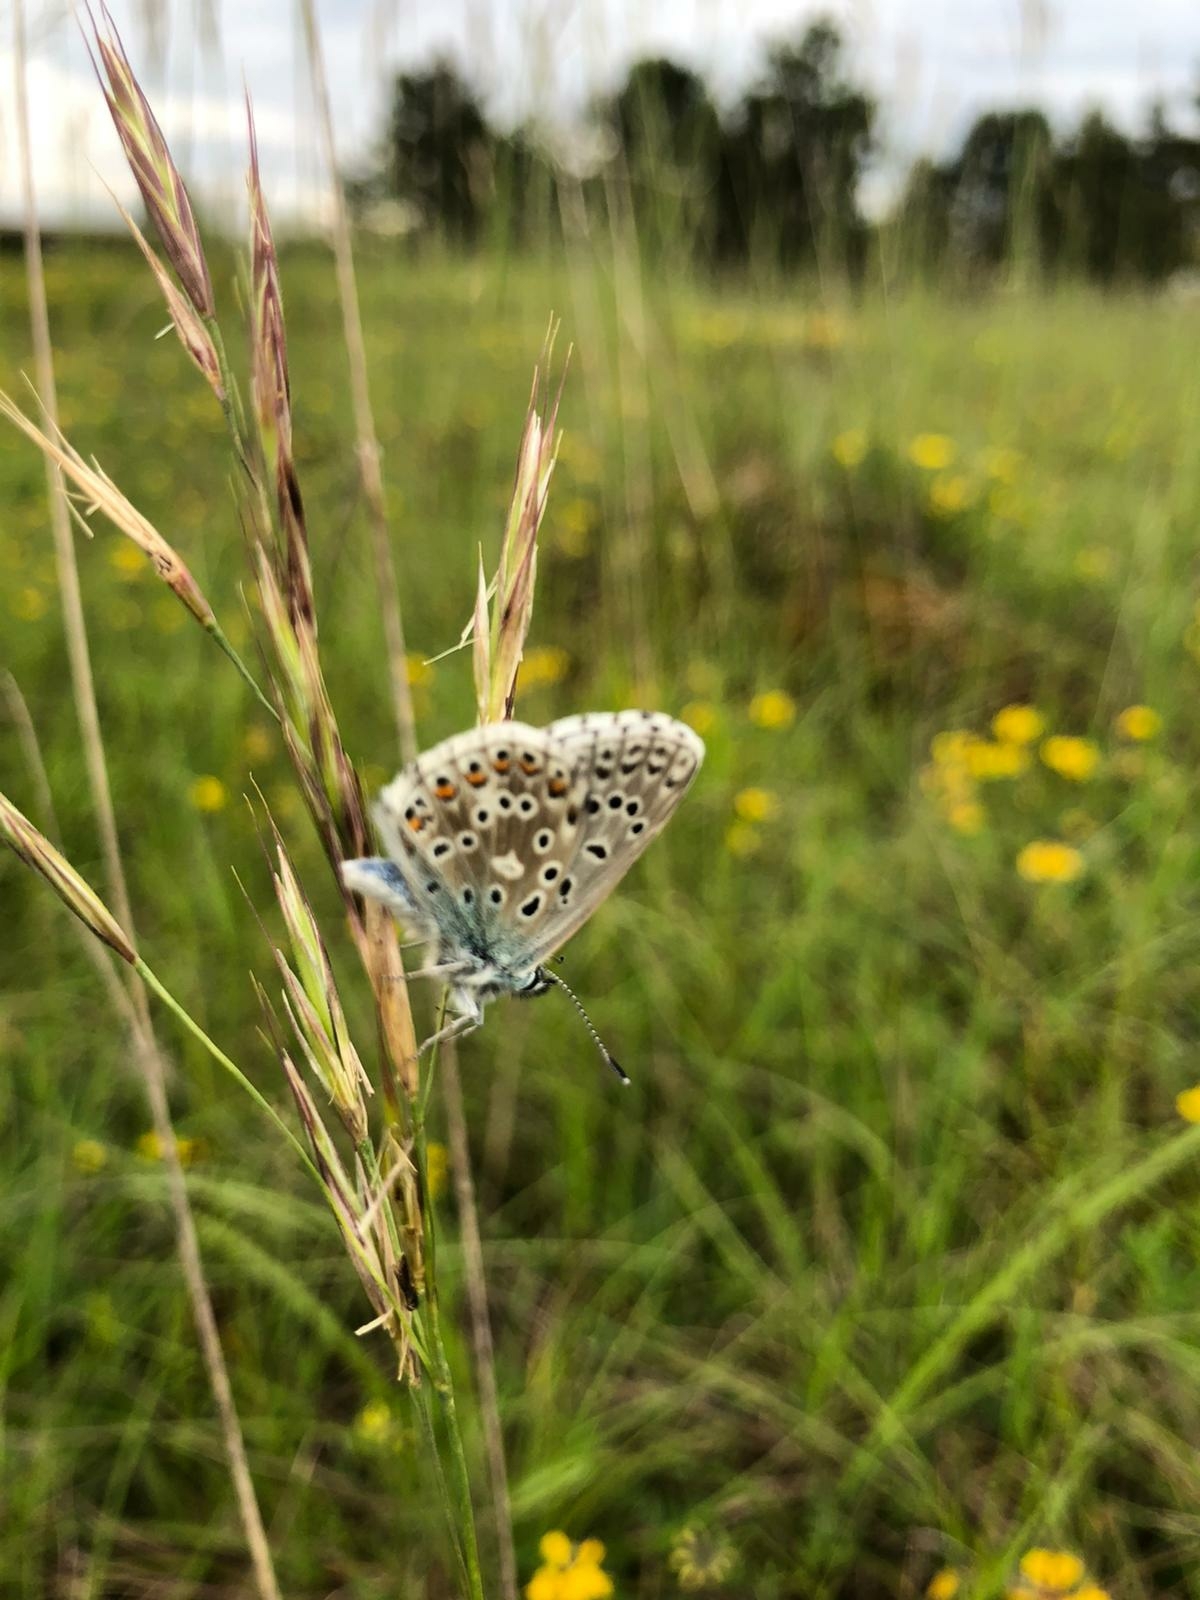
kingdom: Animalia
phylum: Arthropoda
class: Insecta
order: Lepidoptera
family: Lycaenidae
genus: Lysandra
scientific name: Lysandra bellargus
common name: Adonis blue
